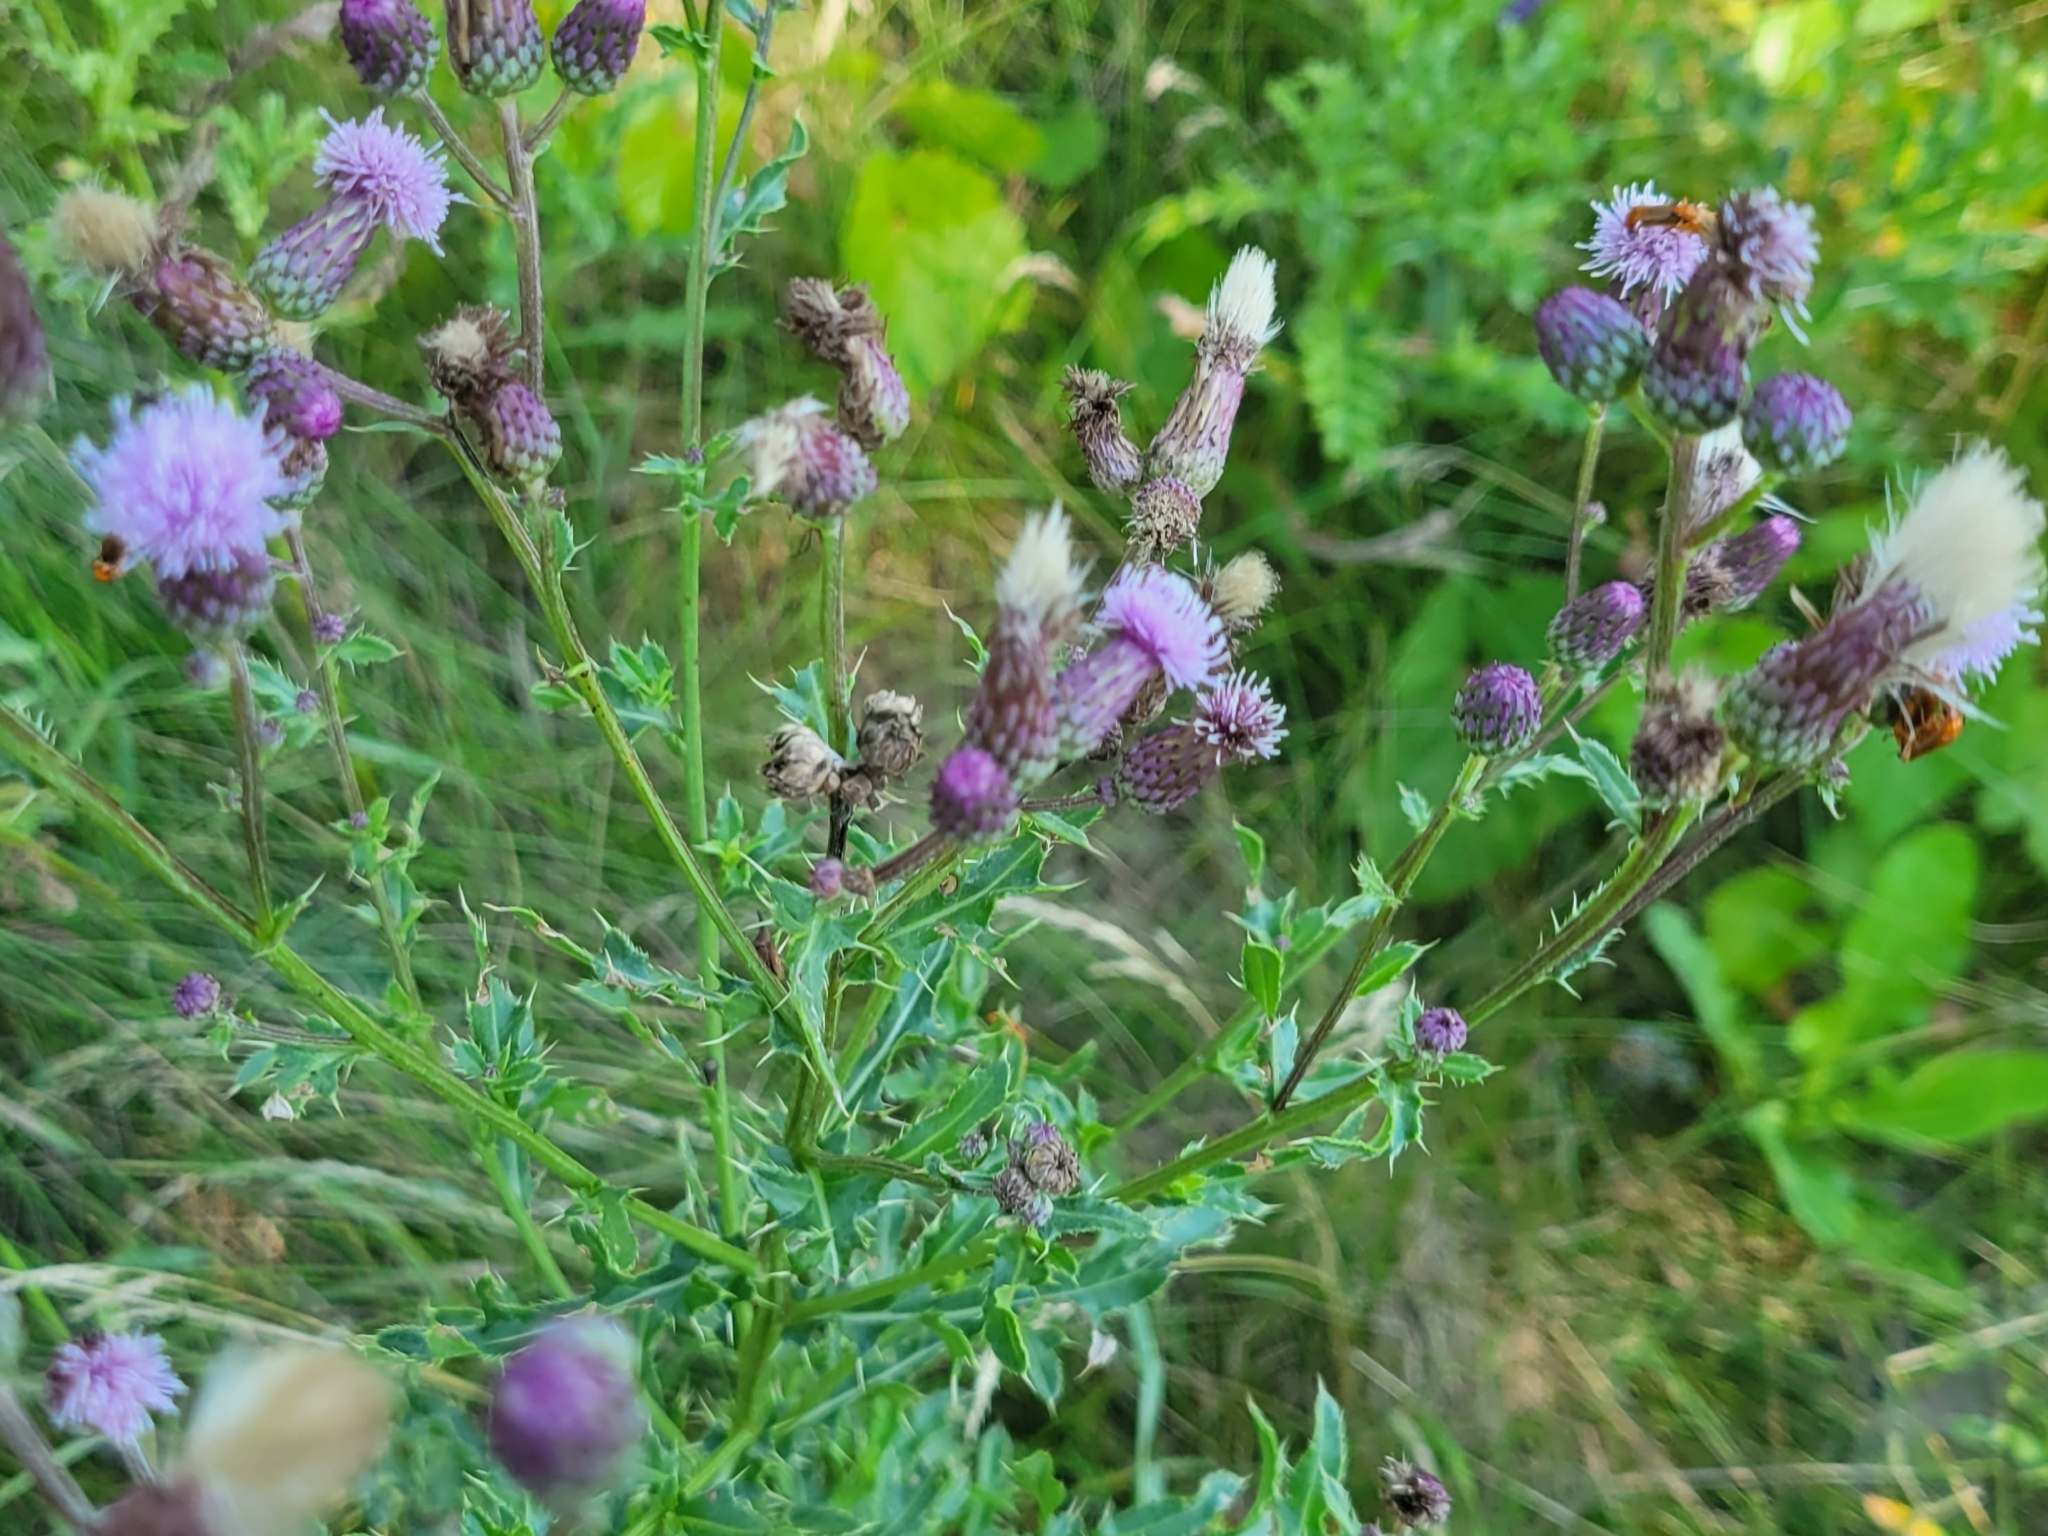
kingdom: Plantae
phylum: Tracheophyta
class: Magnoliopsida
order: Asterales
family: Asteraceae
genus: Cirsium
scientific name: Cirsium arvense
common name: Creeping thistle
